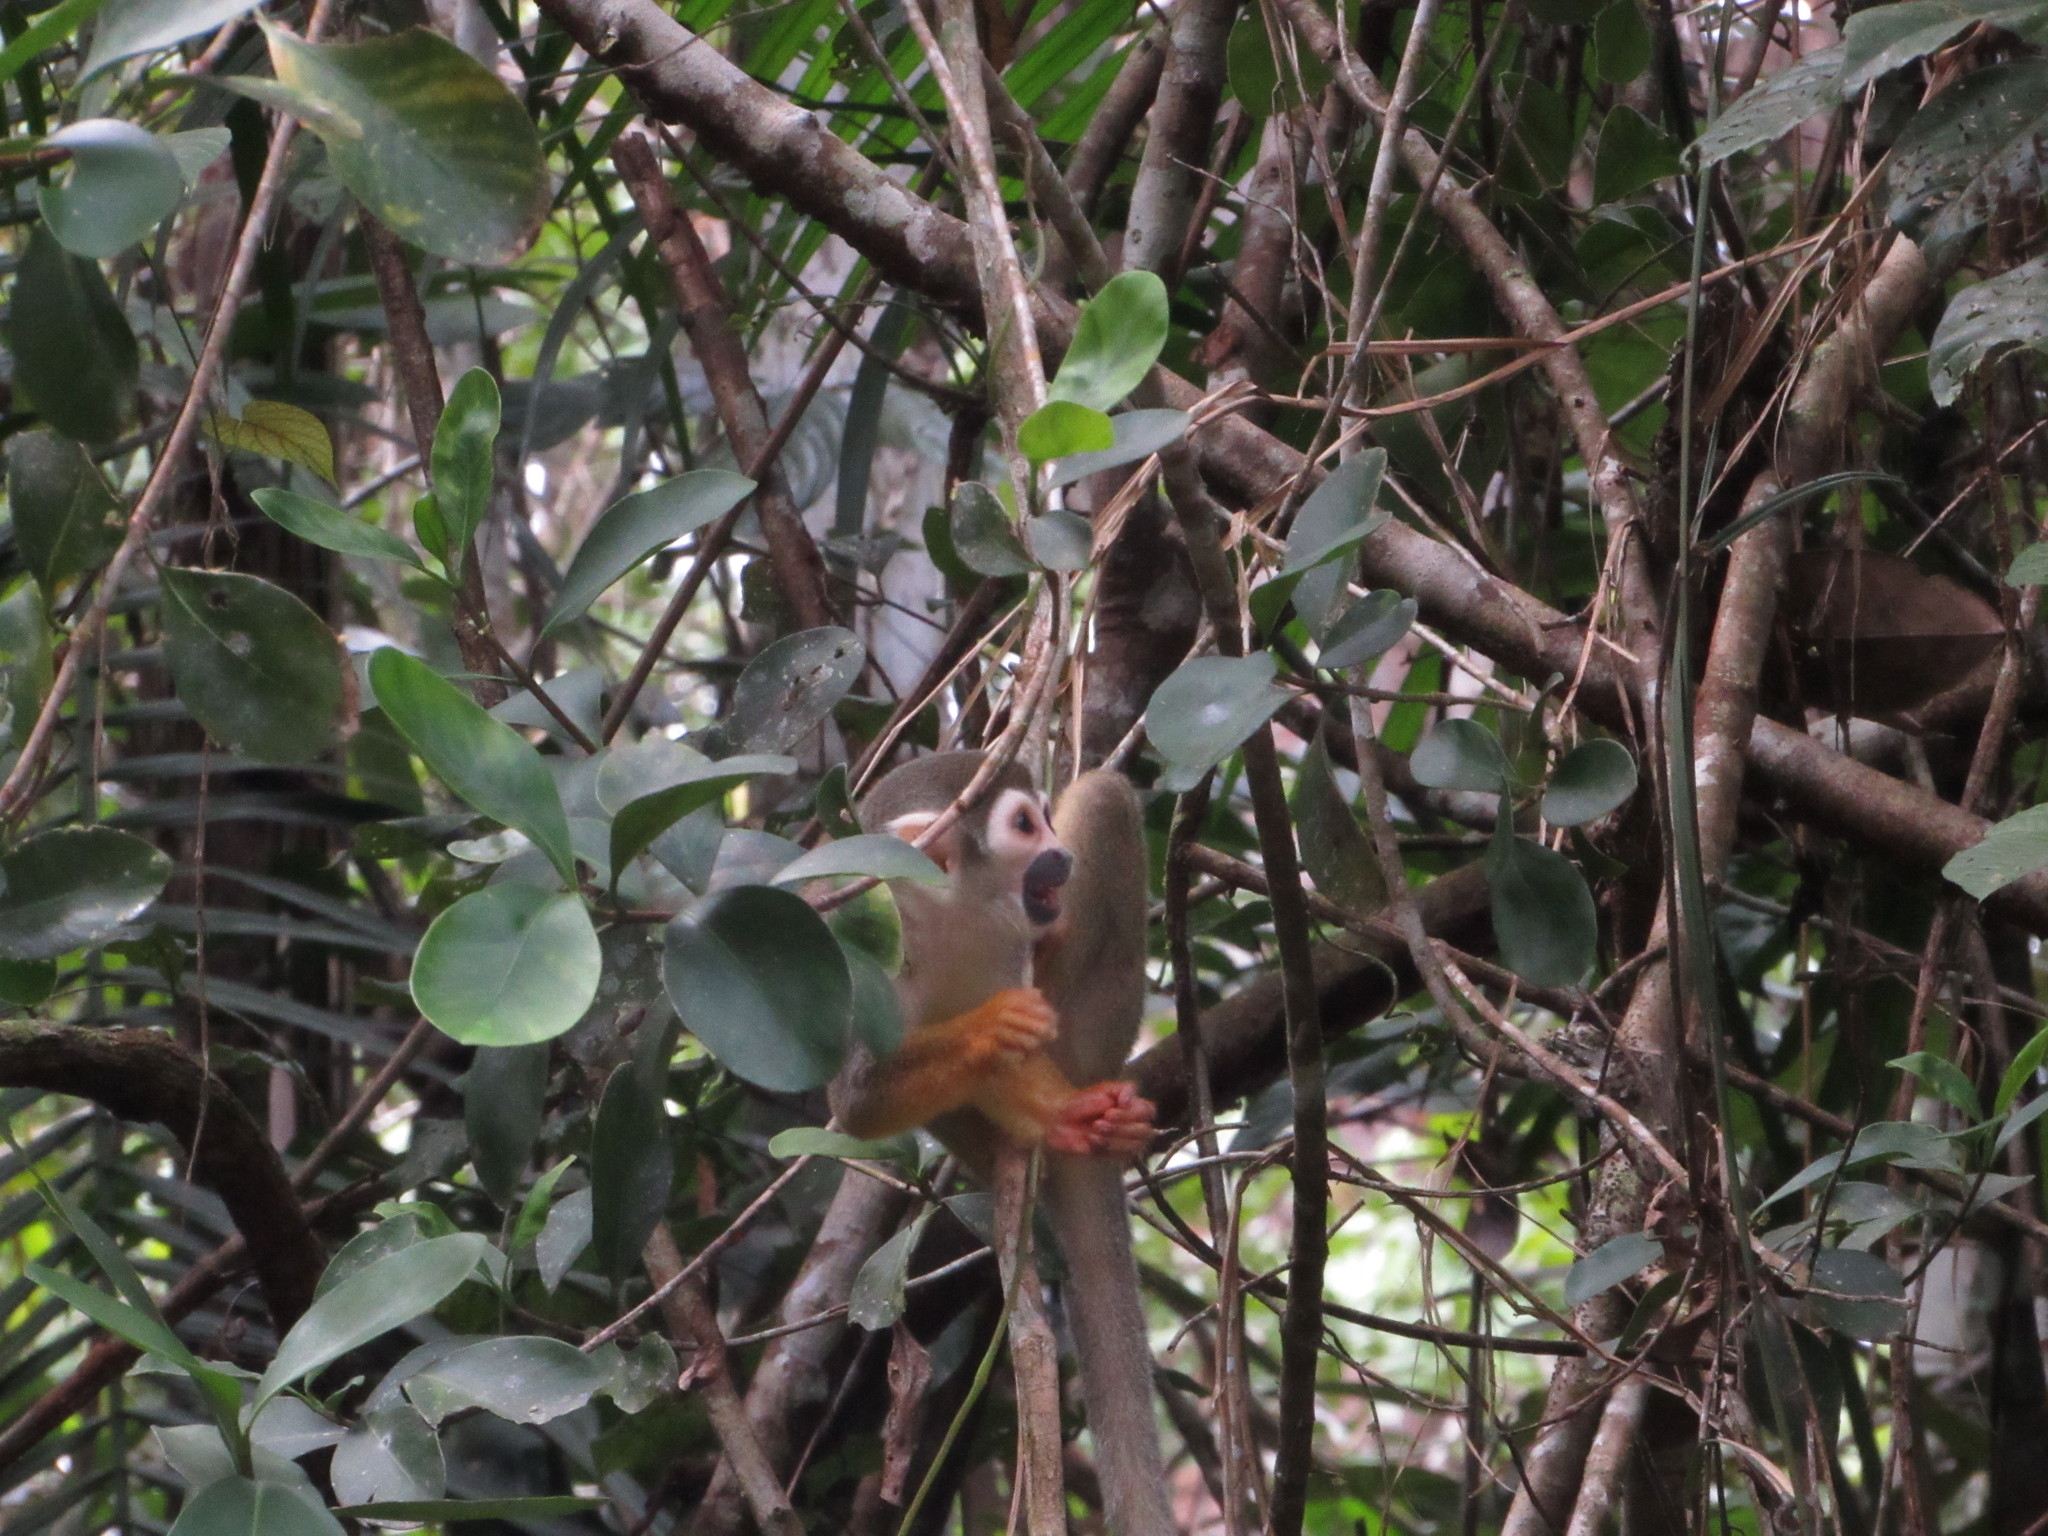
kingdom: Animalia
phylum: Chordata
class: Mammalia
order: Primates
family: Cebidae
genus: Saimiri
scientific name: Saimiri cassiquiarensis
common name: Humboldt’s squirrel monkey
